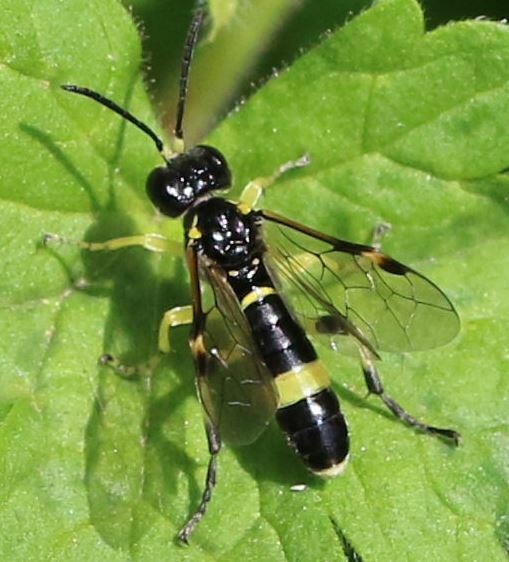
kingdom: Animalia
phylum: Arthropoda
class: Insecta
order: Hymenoptera
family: Tenthredinidae
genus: Tenthredo
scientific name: Tenthredo zonula
